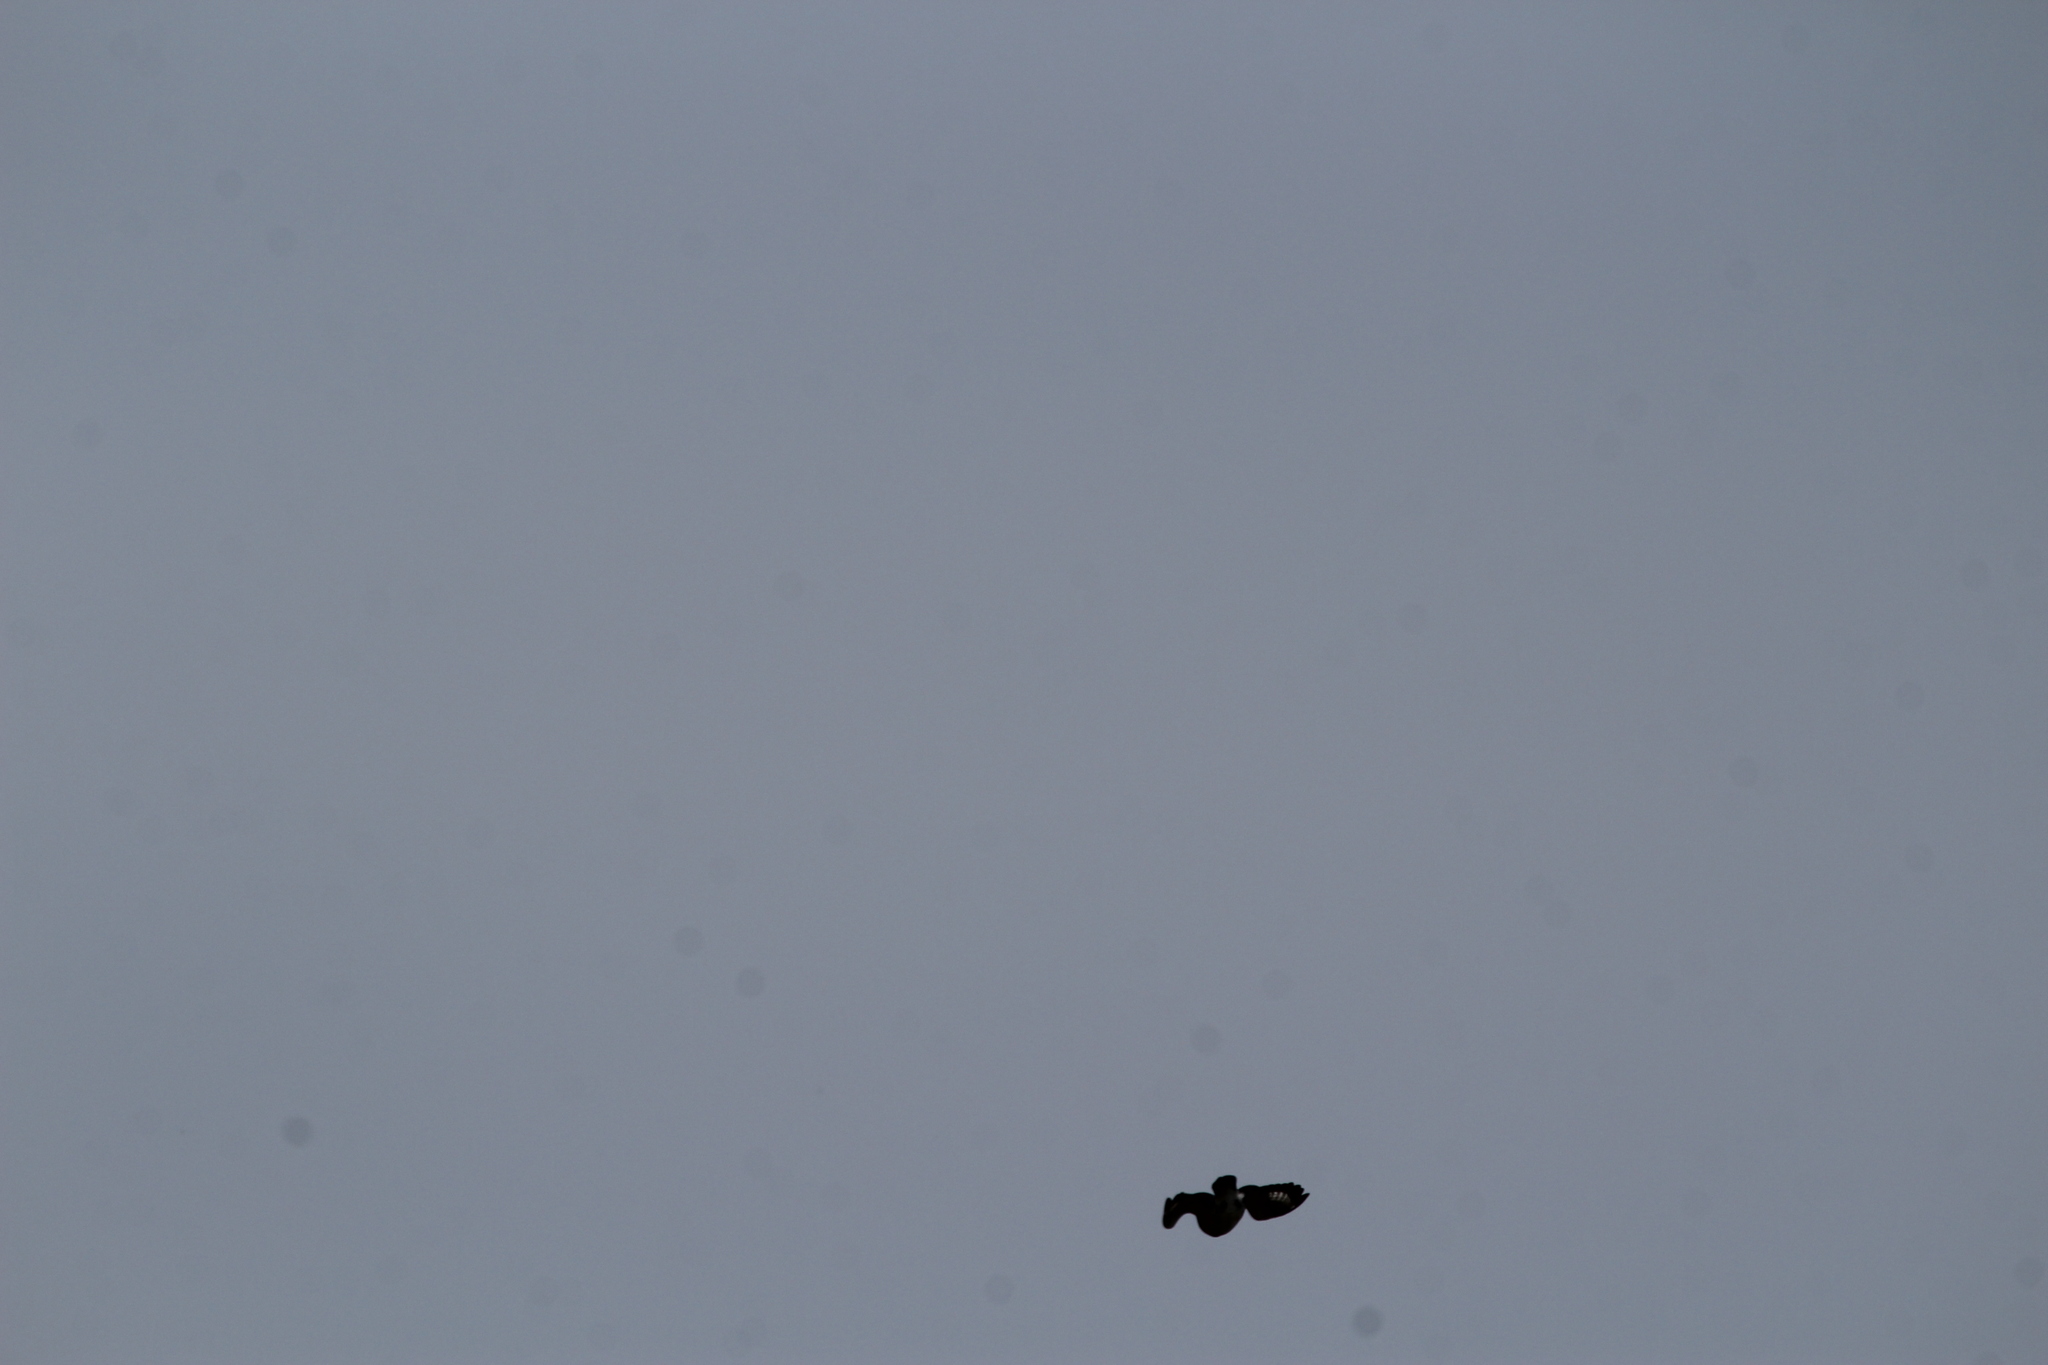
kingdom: Animalia
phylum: Chordata
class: Aves
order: Coraciiformes
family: Alcedinidae
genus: Megaceryle
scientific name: Megaceryle alcyon
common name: Belted kingfisher
